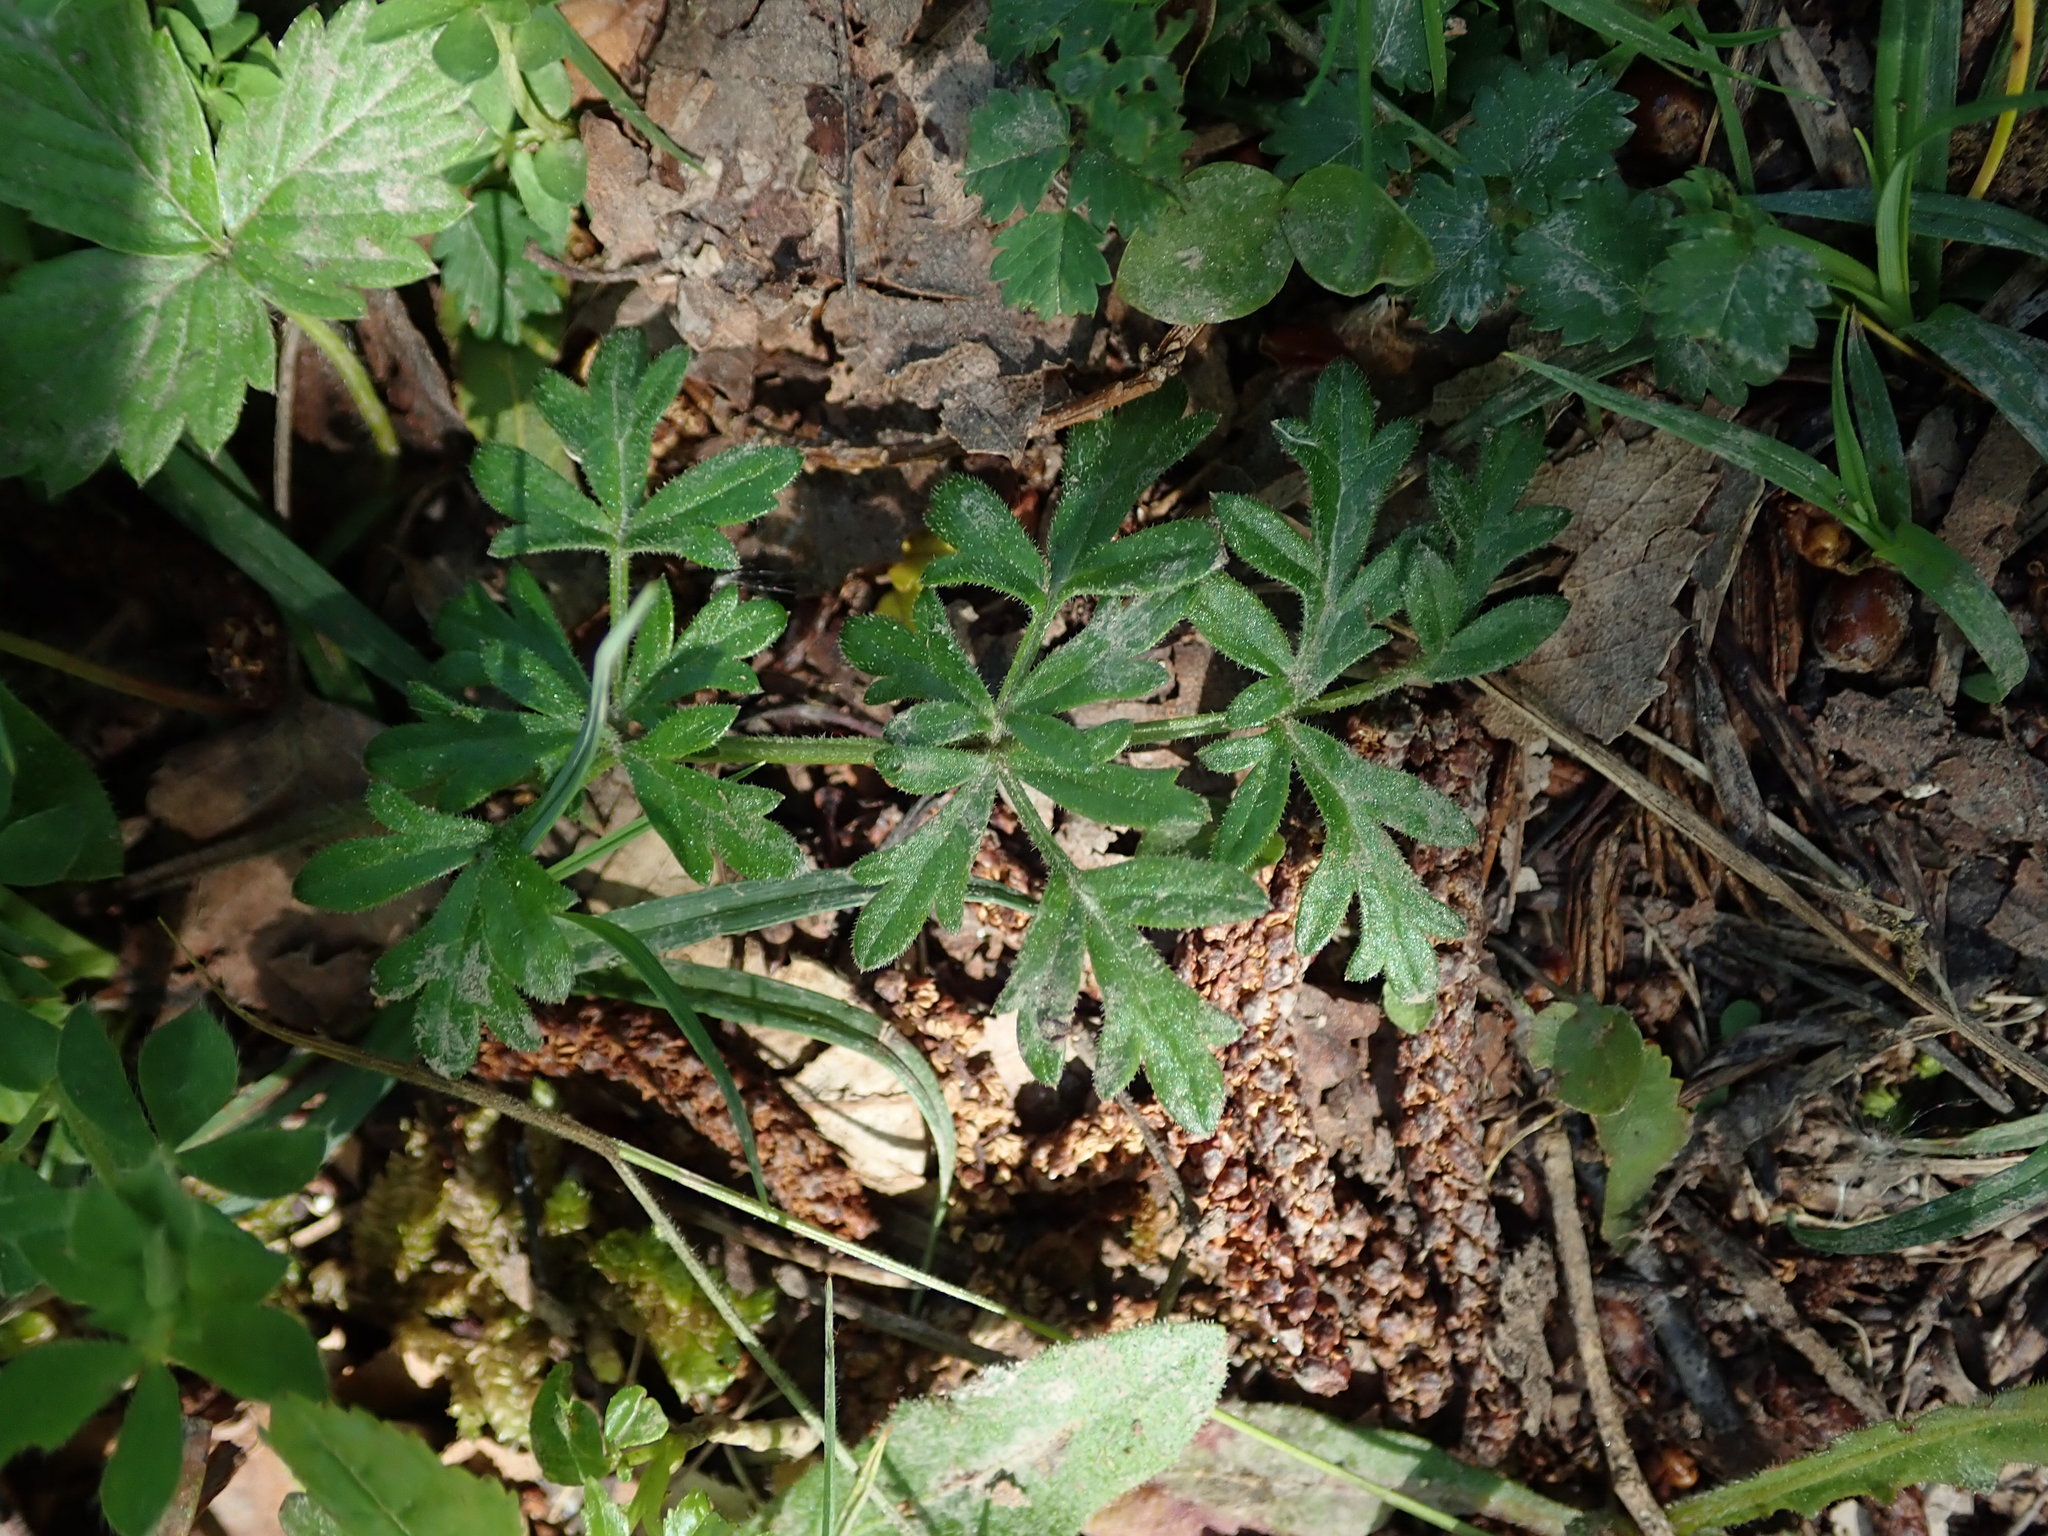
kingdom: Plantae
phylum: Tracheophyta
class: Magnoliopsida
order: Apiales
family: Apiaceae
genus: Pimpinella
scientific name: Pimpinella saxifraga
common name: Burnet-saxifrage
